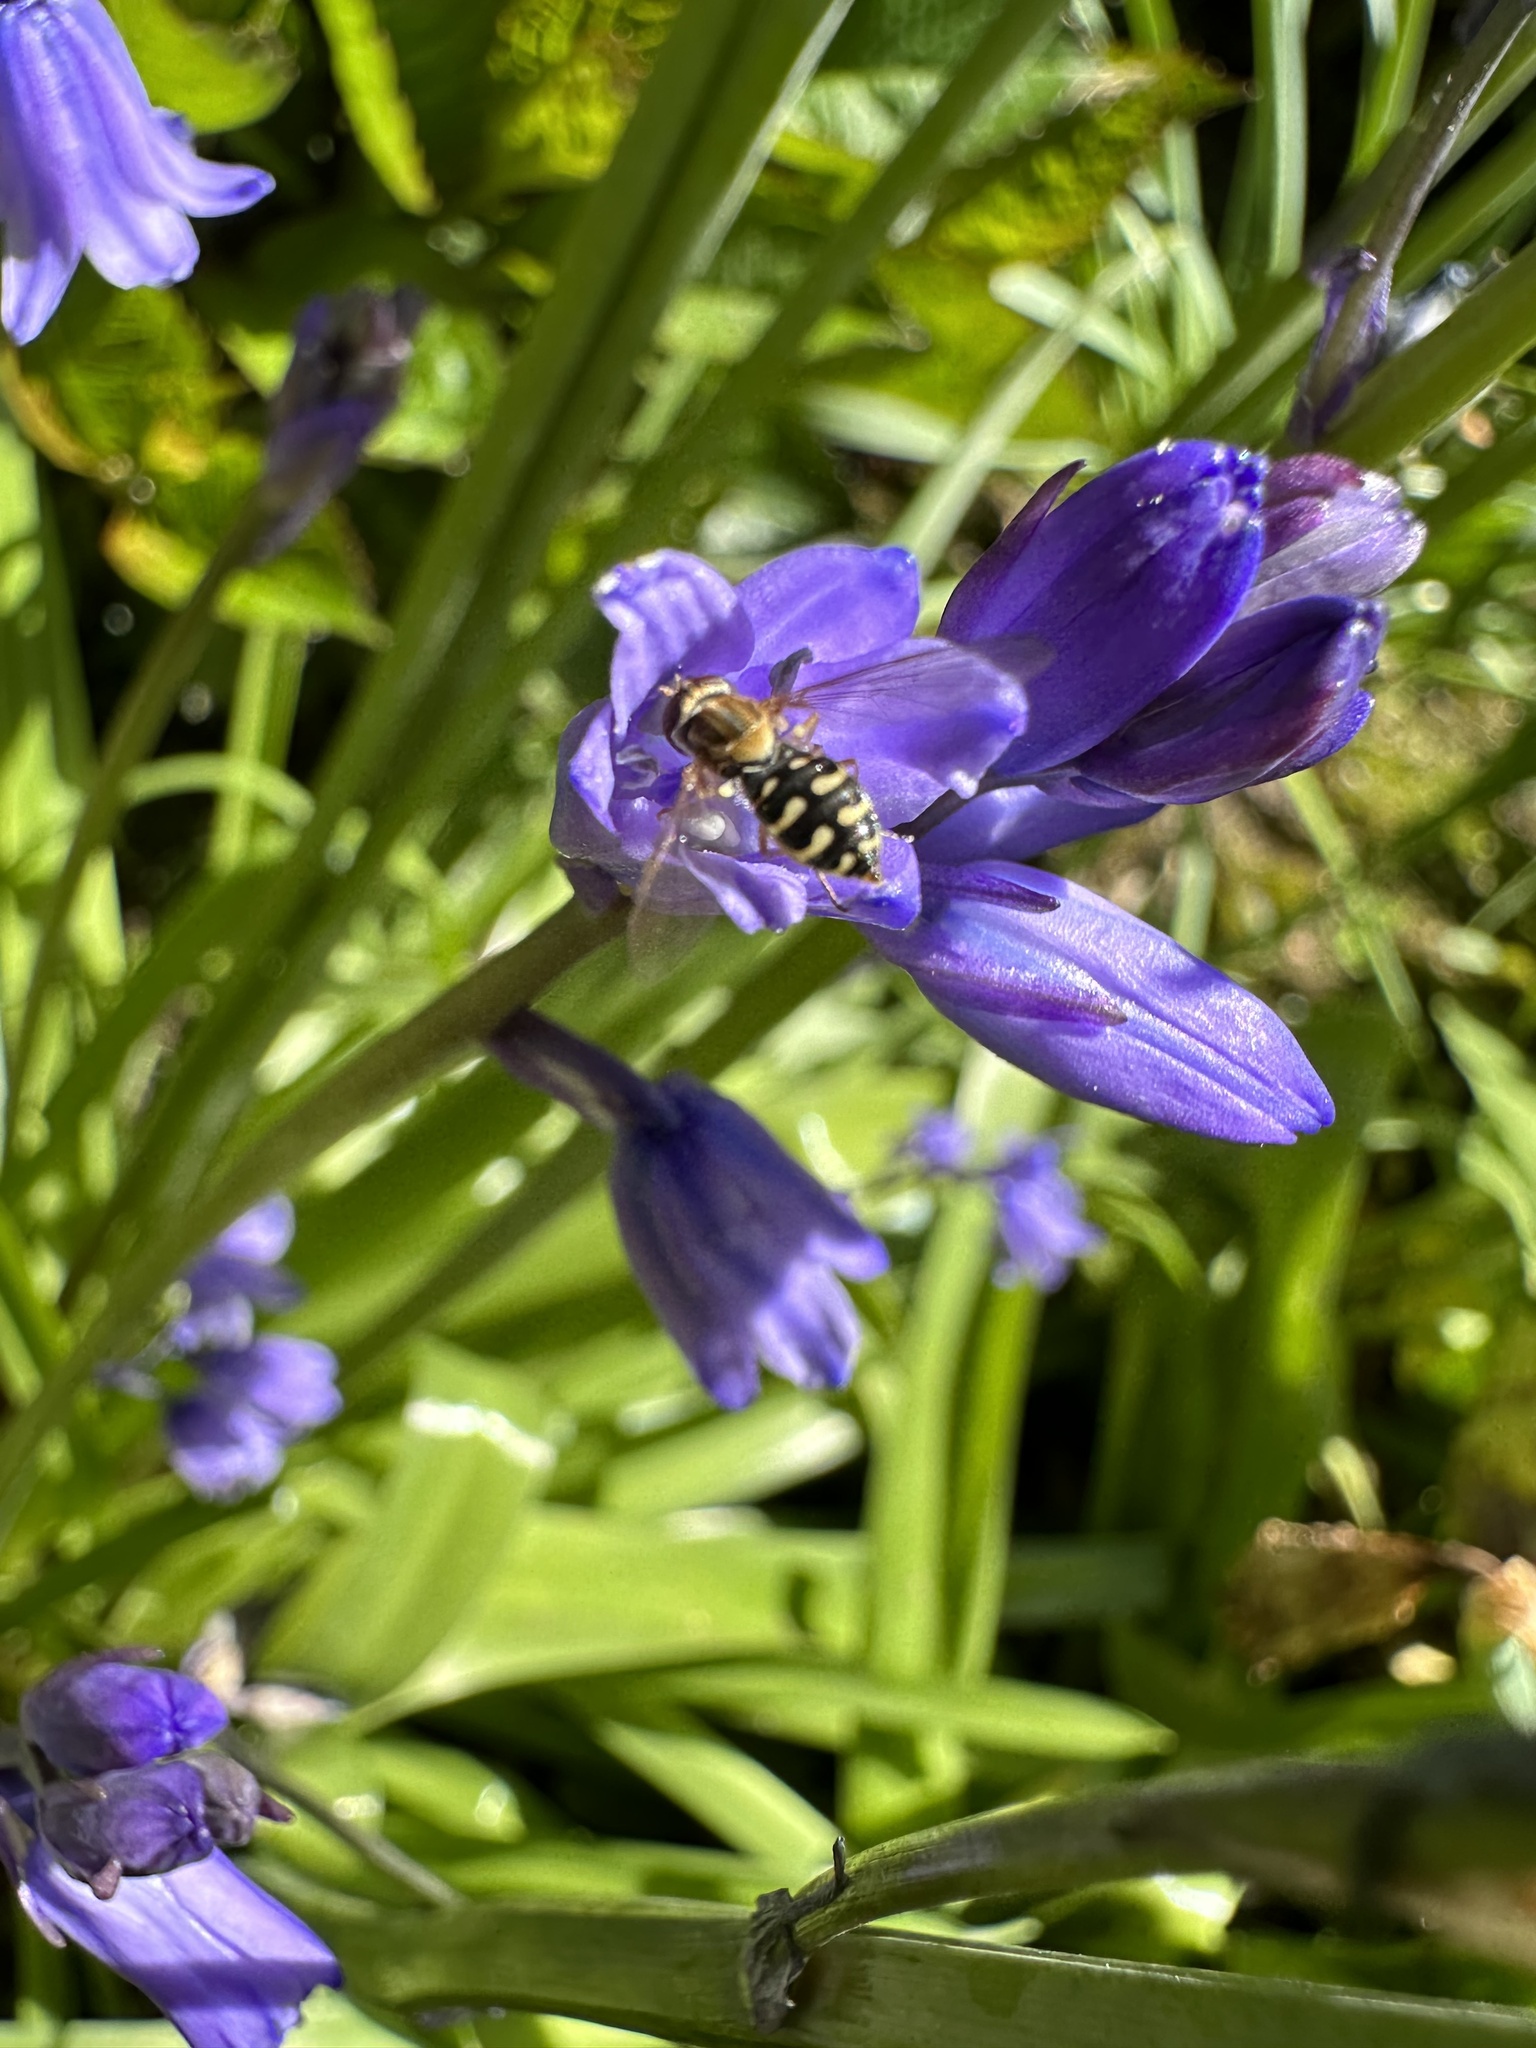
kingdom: Animalia
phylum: Arthropoda
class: Insecta
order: Diptera
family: Syrphidae
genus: Toxomerus
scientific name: Toxomerus vertebratus
